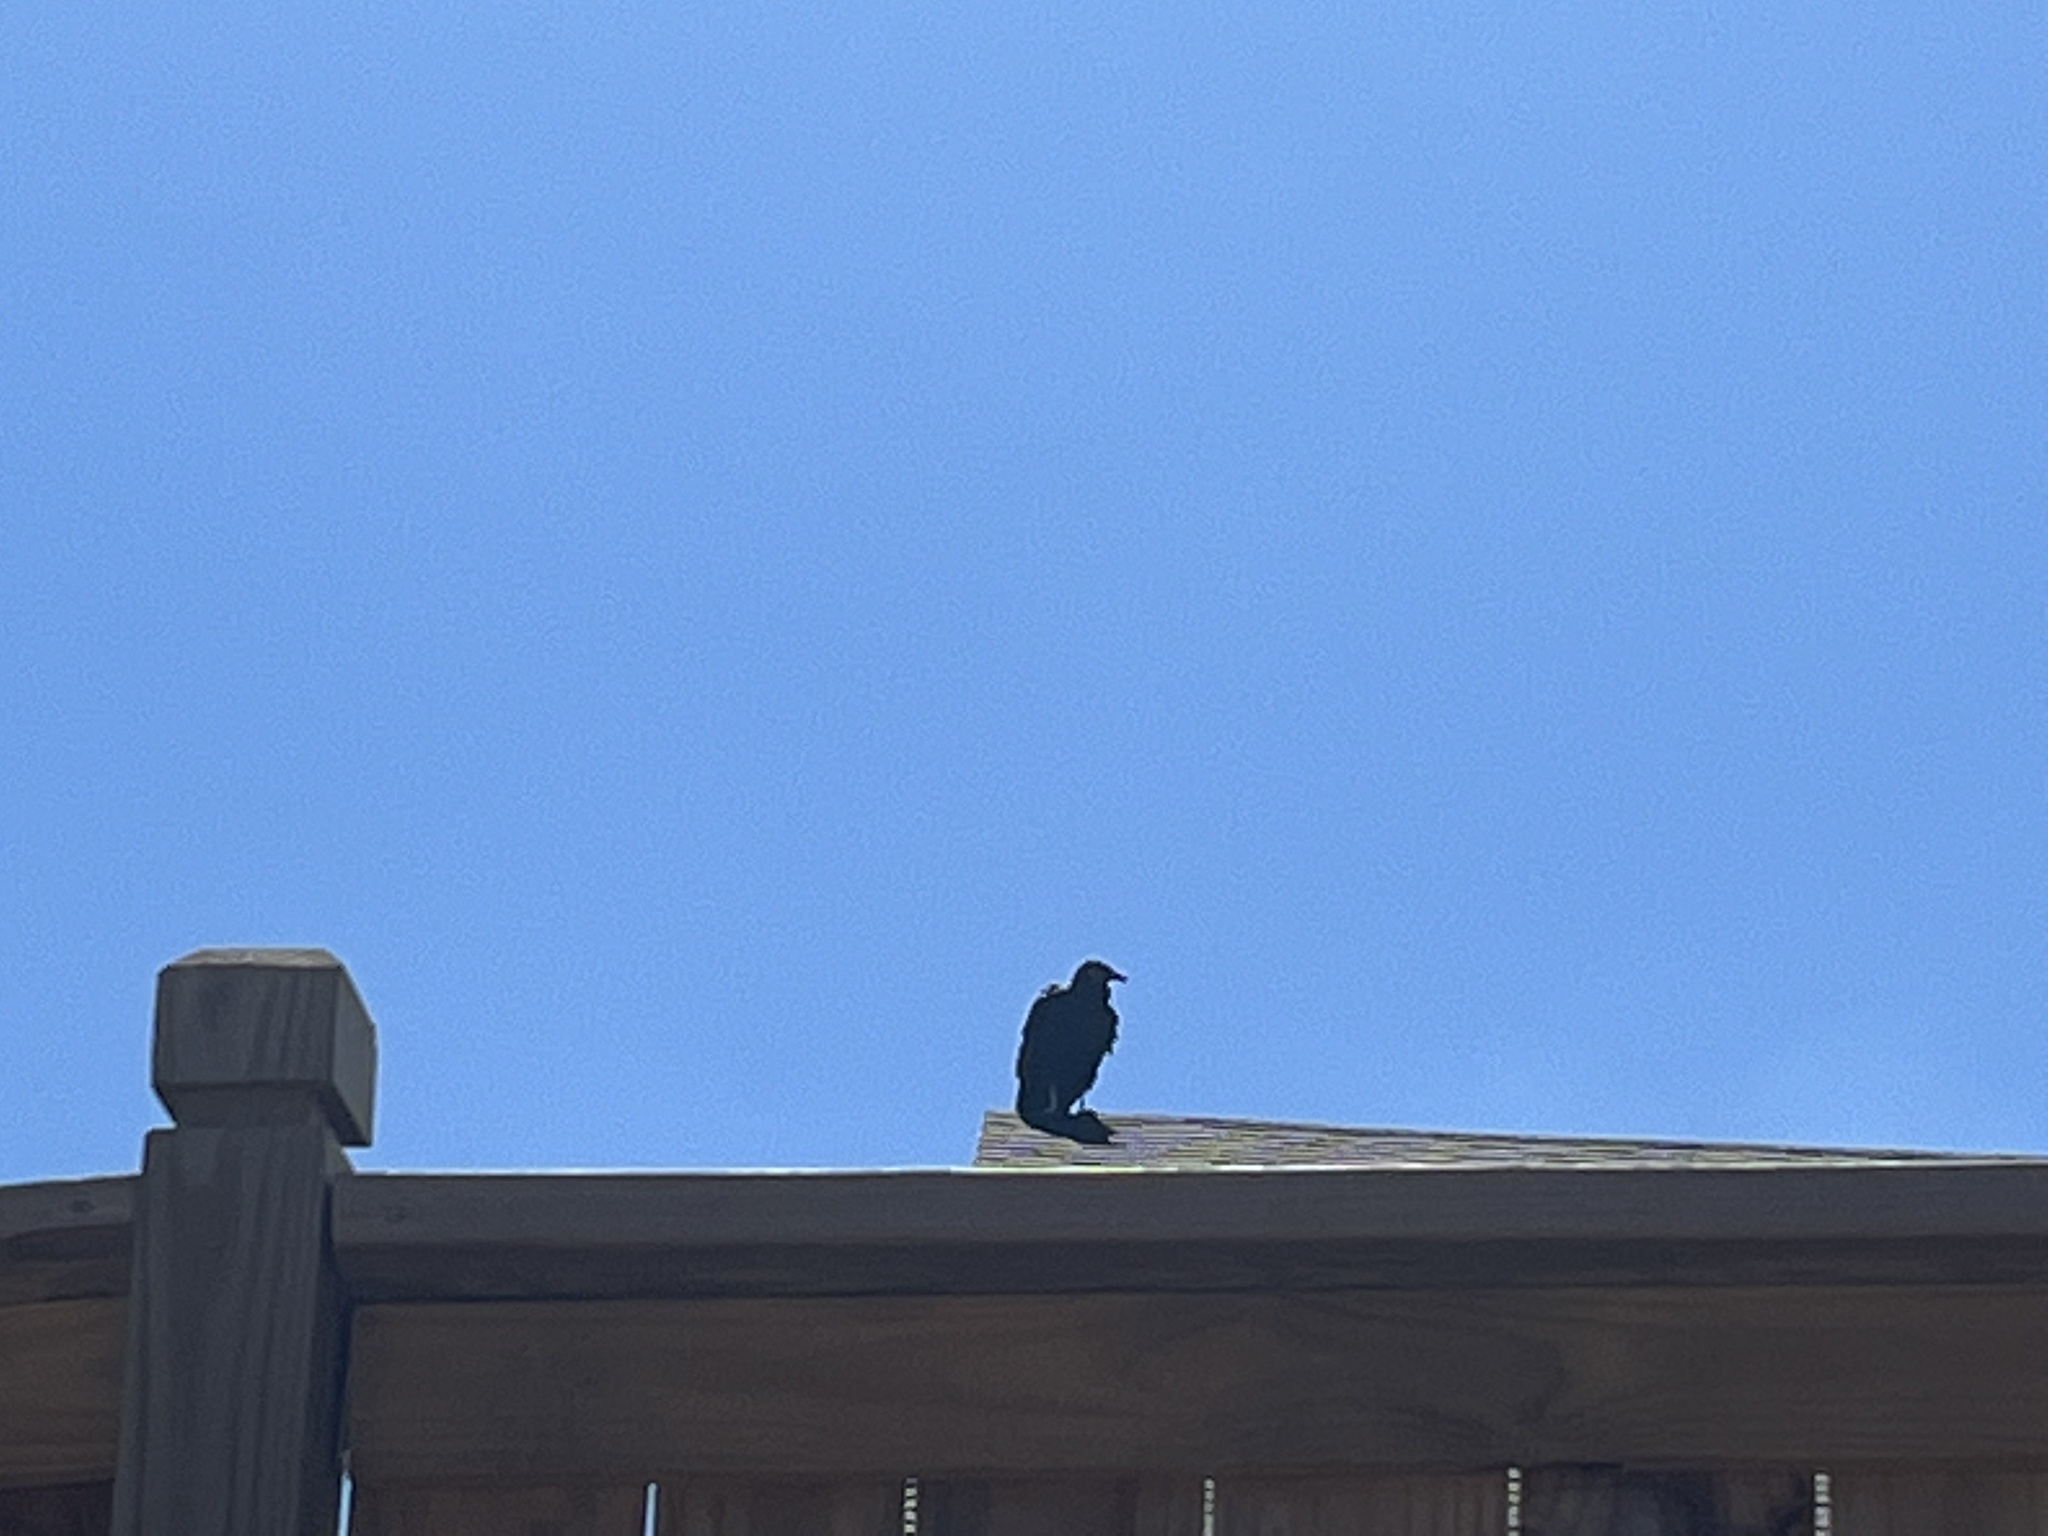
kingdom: Animalia
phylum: Chordata
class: Aves
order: Accipitriformes
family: Cathartidae
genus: Coragyps
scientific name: Coragyps atratus
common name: Black vulture
